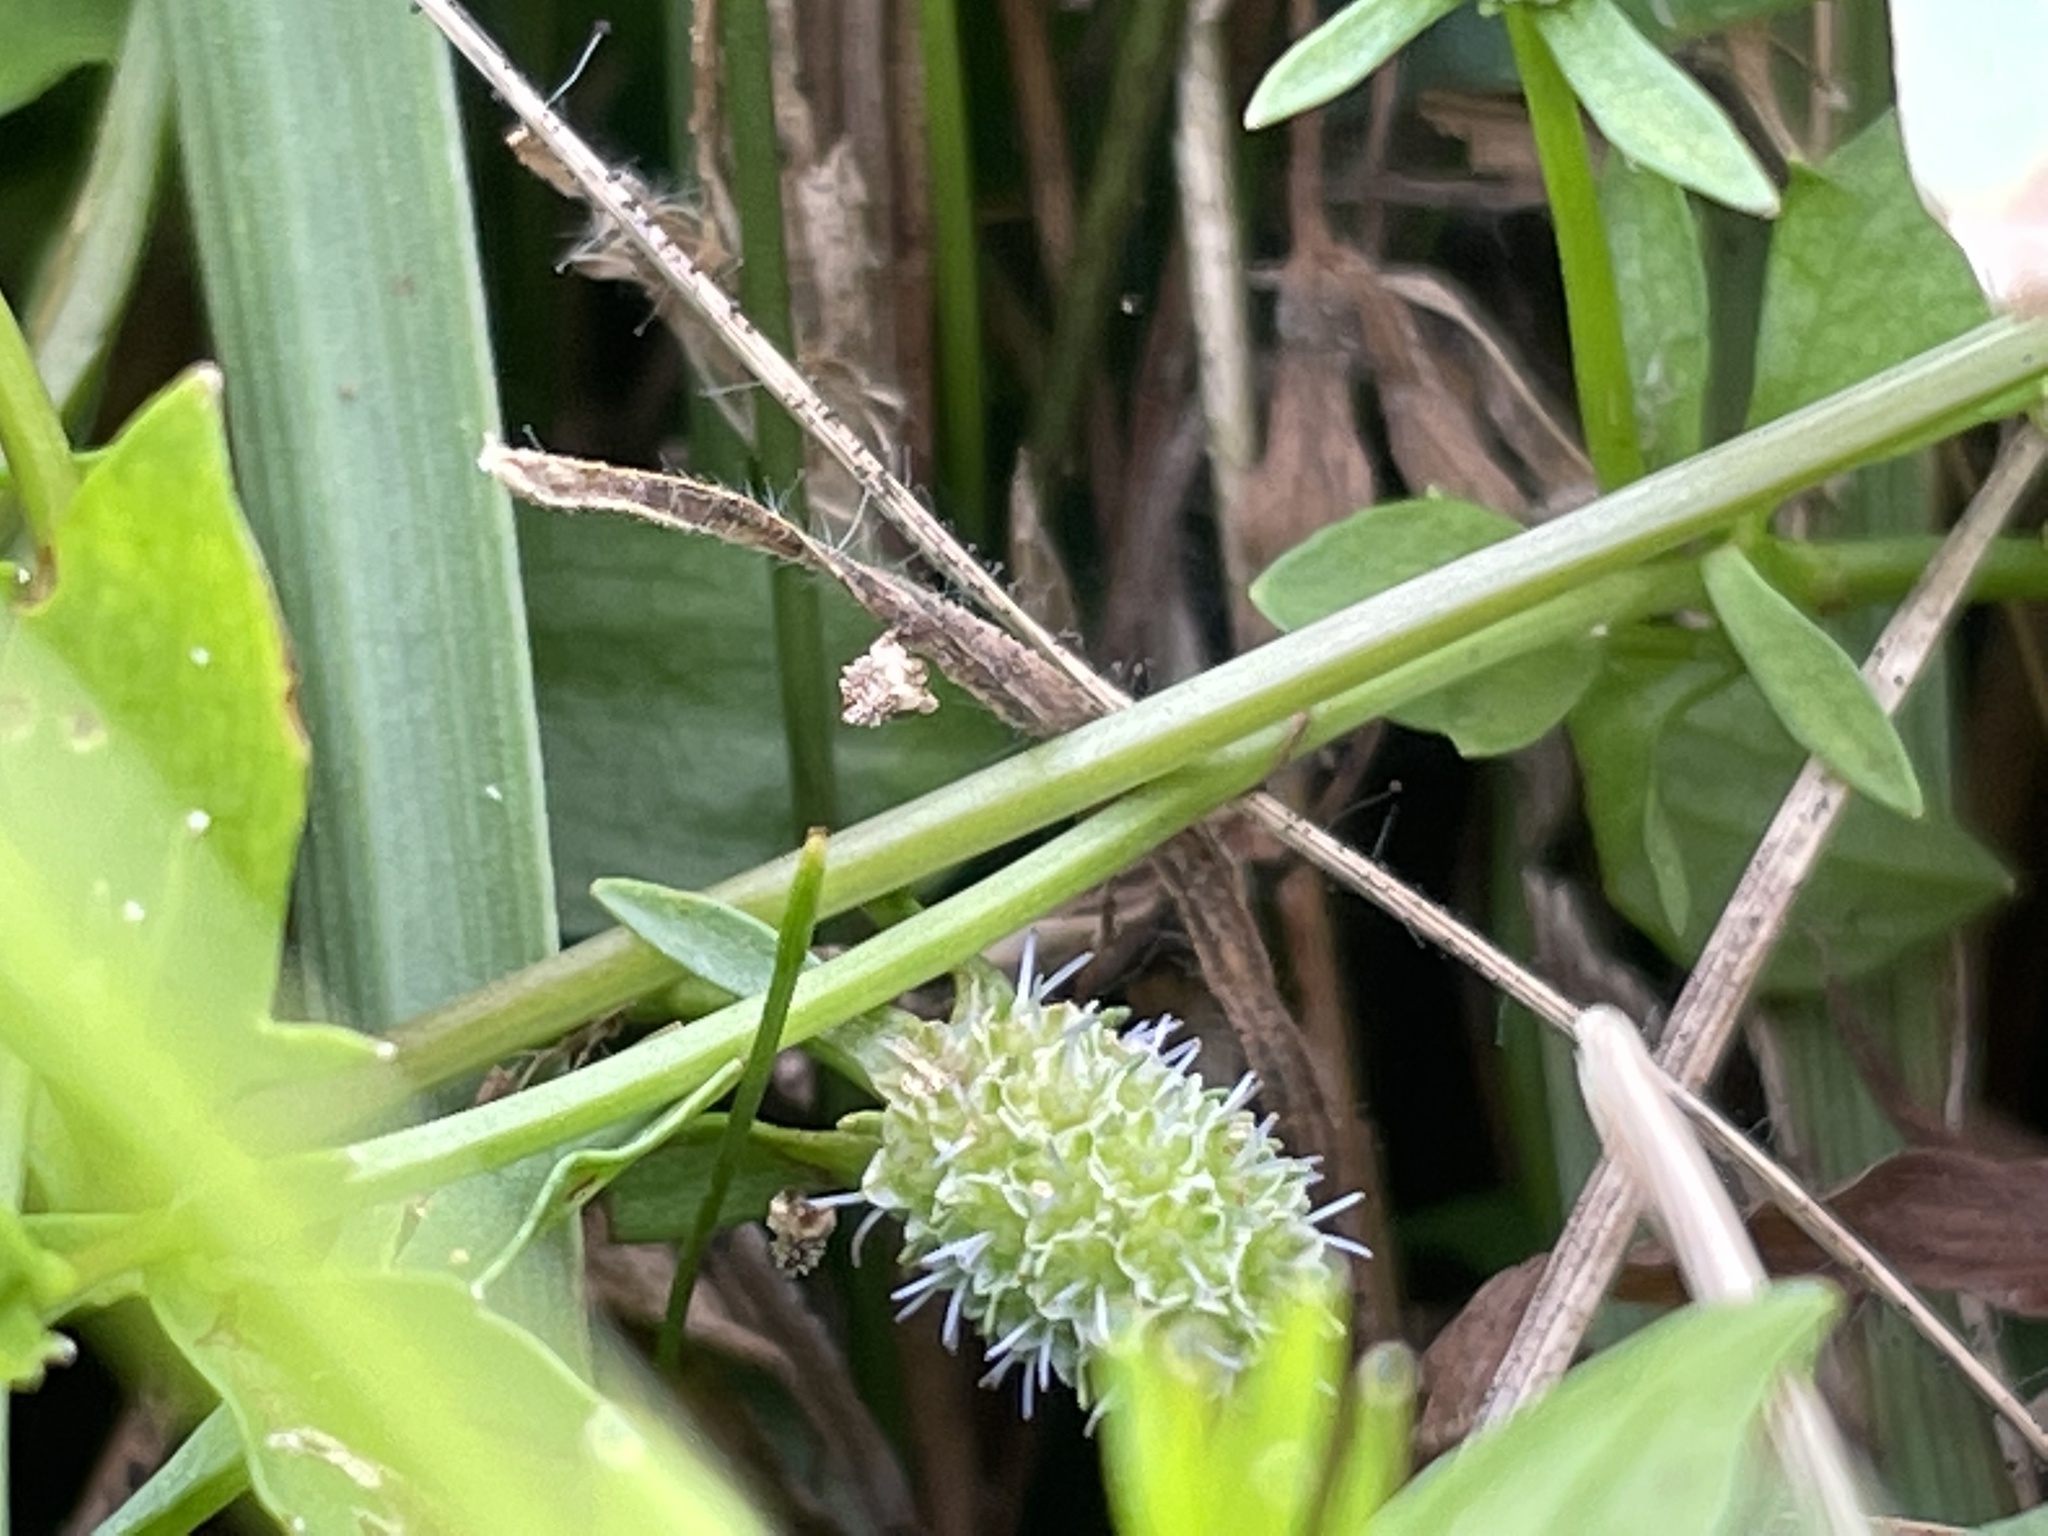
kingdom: Plantae
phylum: Tracheophyta
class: Magnoliopsida
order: Apiales
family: Apiaceae
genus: Eryngium
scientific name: Eryngium prostratum
